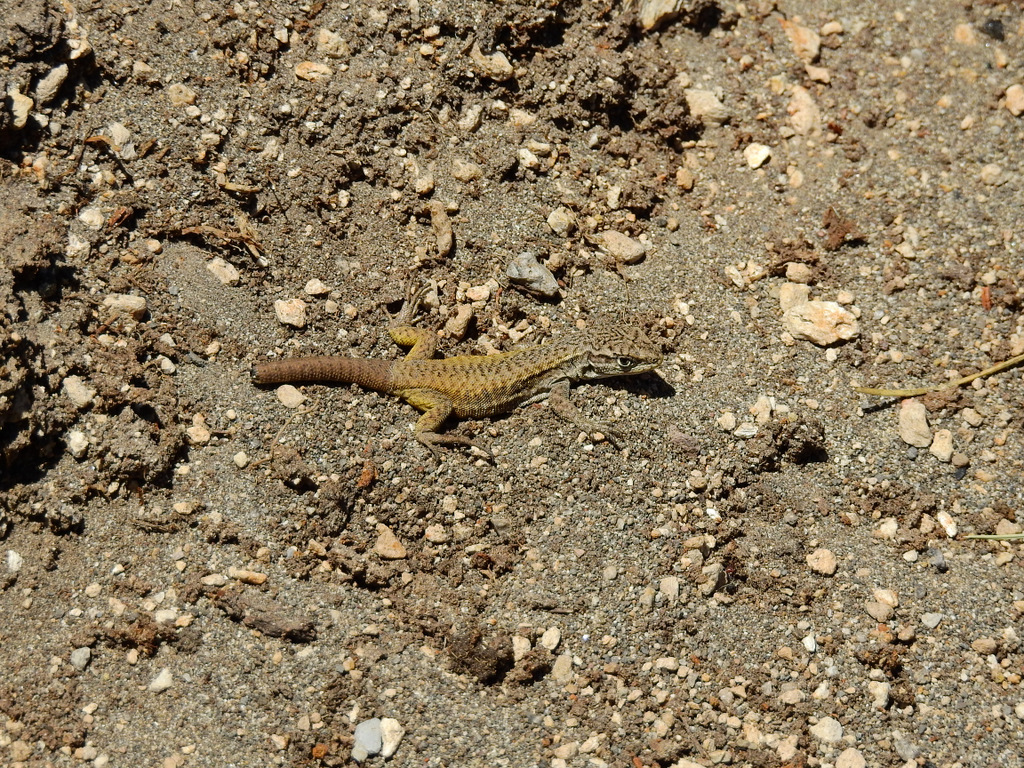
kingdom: Animalia
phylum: Chordata
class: Squamata
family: Liolaemidae
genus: Liolaemus
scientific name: Liolaemus smaug
